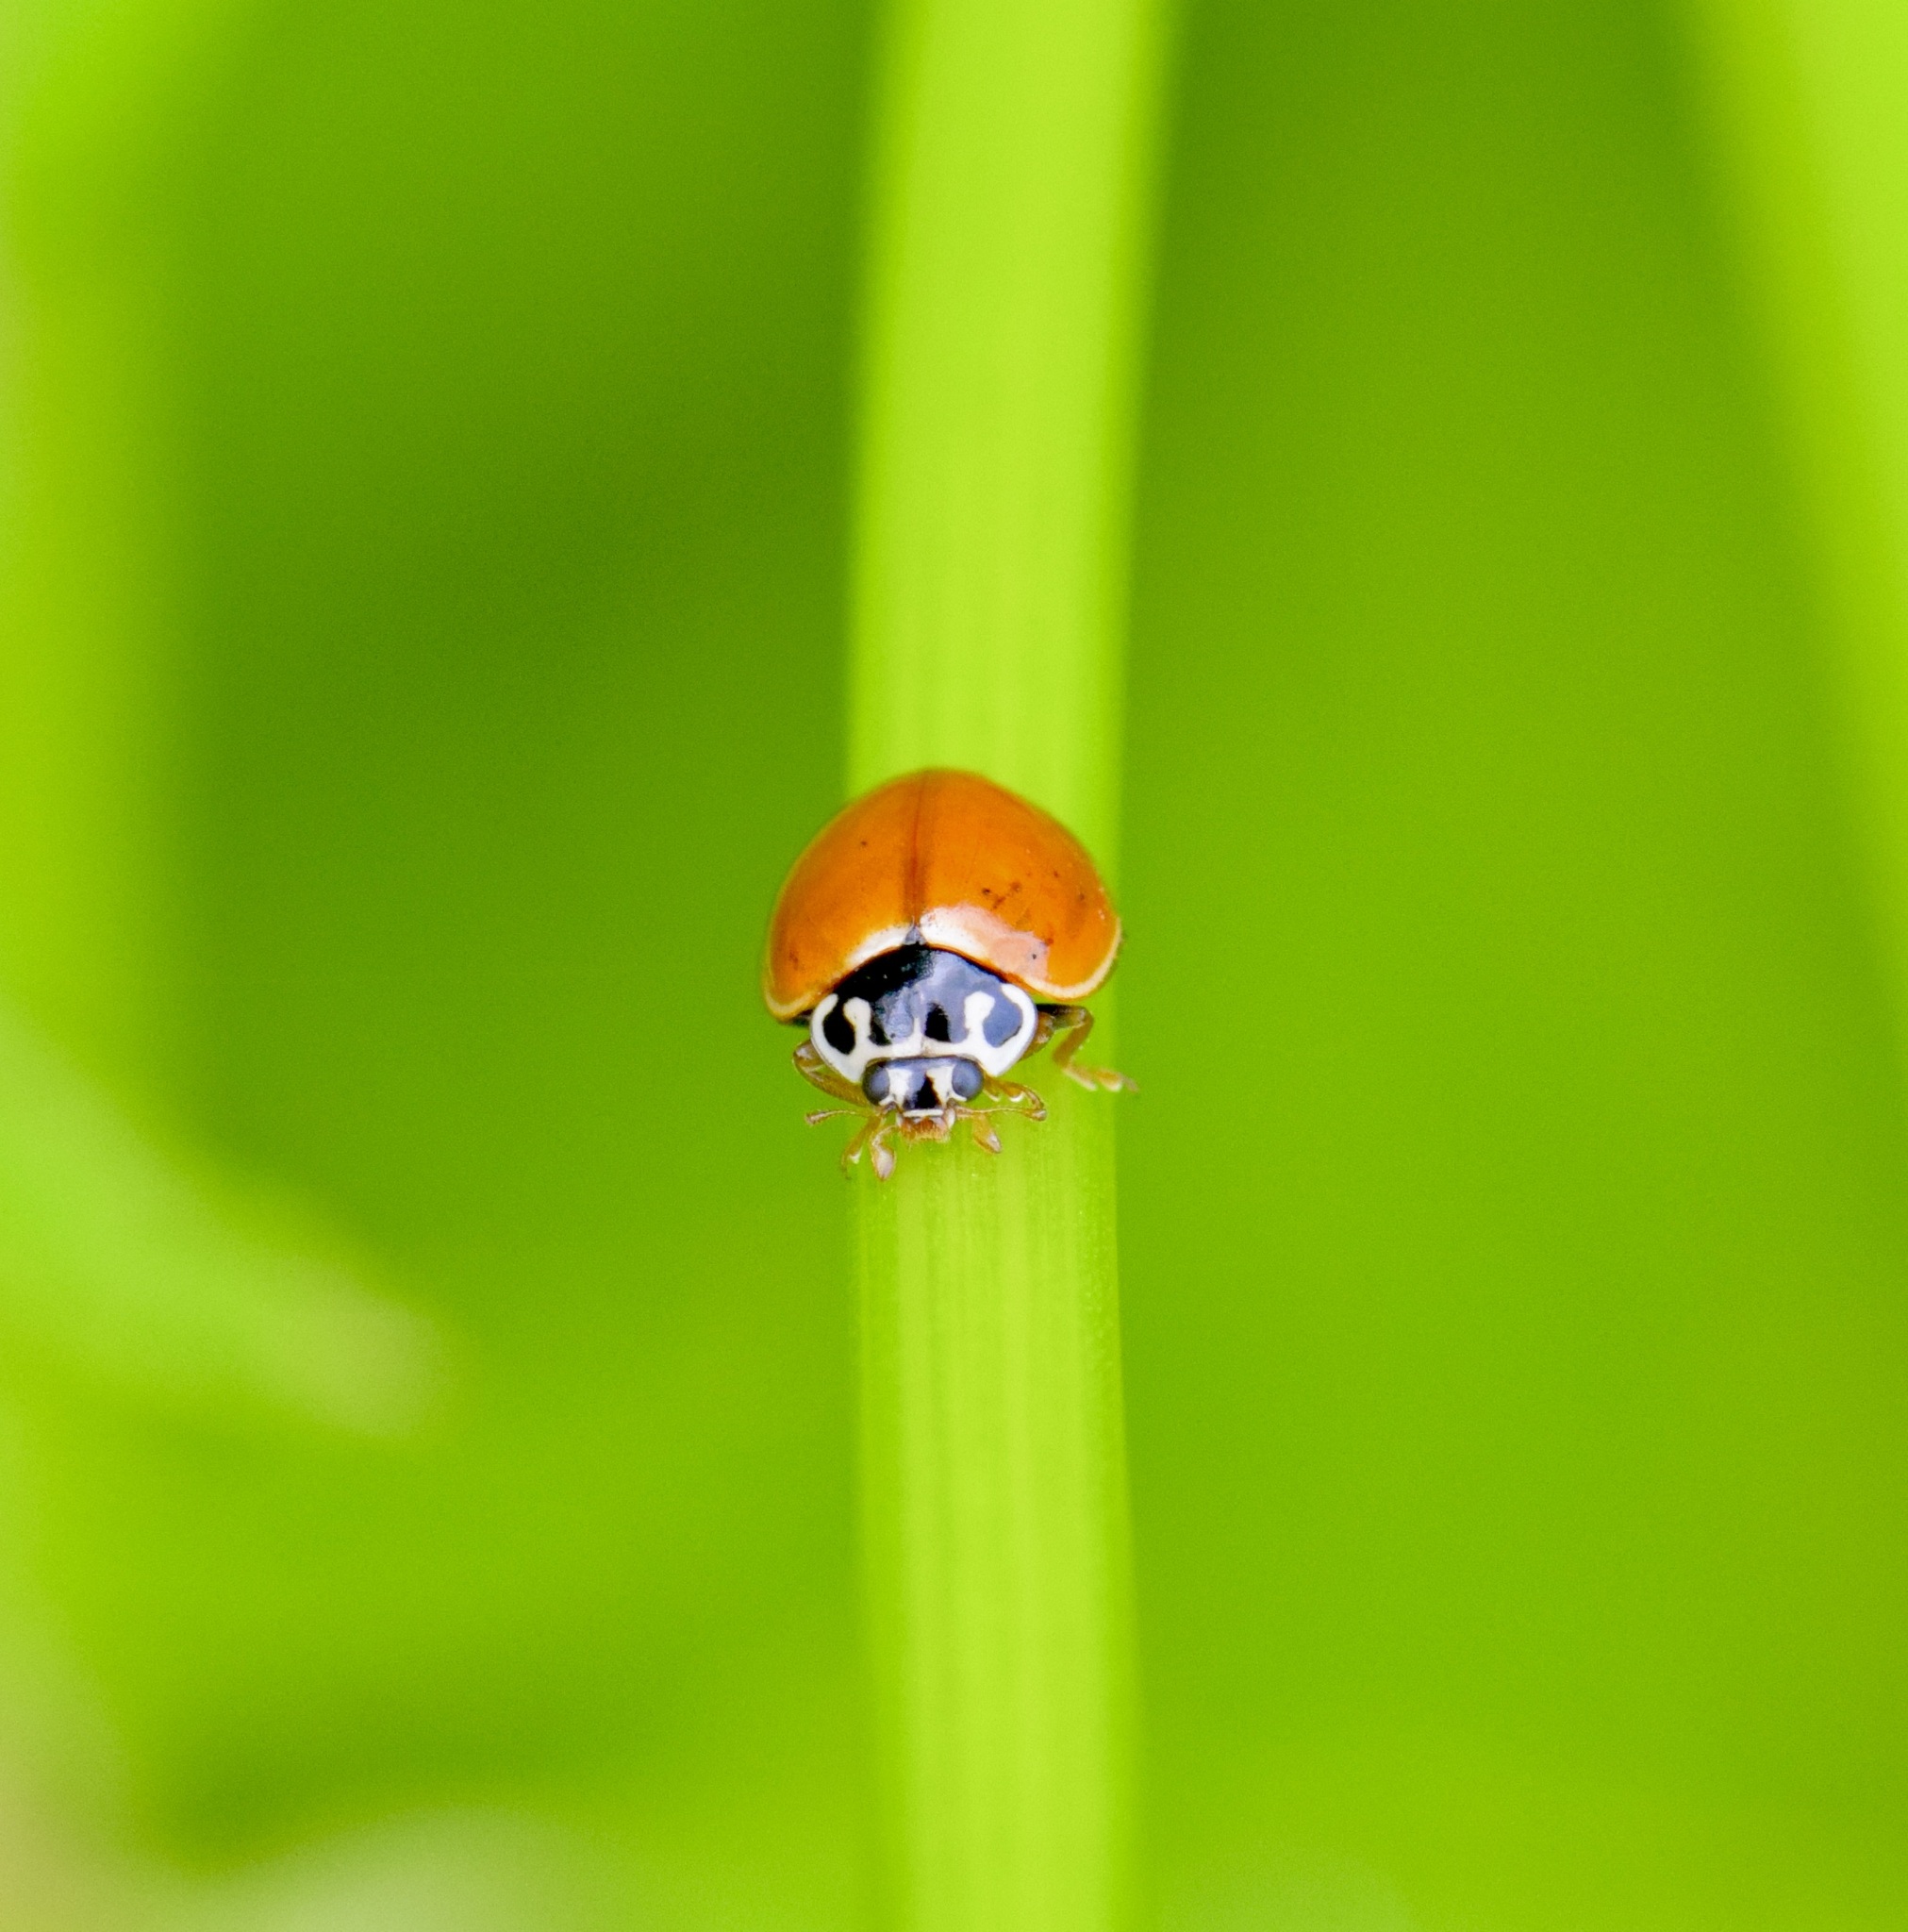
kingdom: Animalia
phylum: Arthropoda
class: Insecta
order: Coleoptera
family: Coccinellidae
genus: Cycloneda
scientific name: Cycloneda munda
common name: Polished lady beetle
